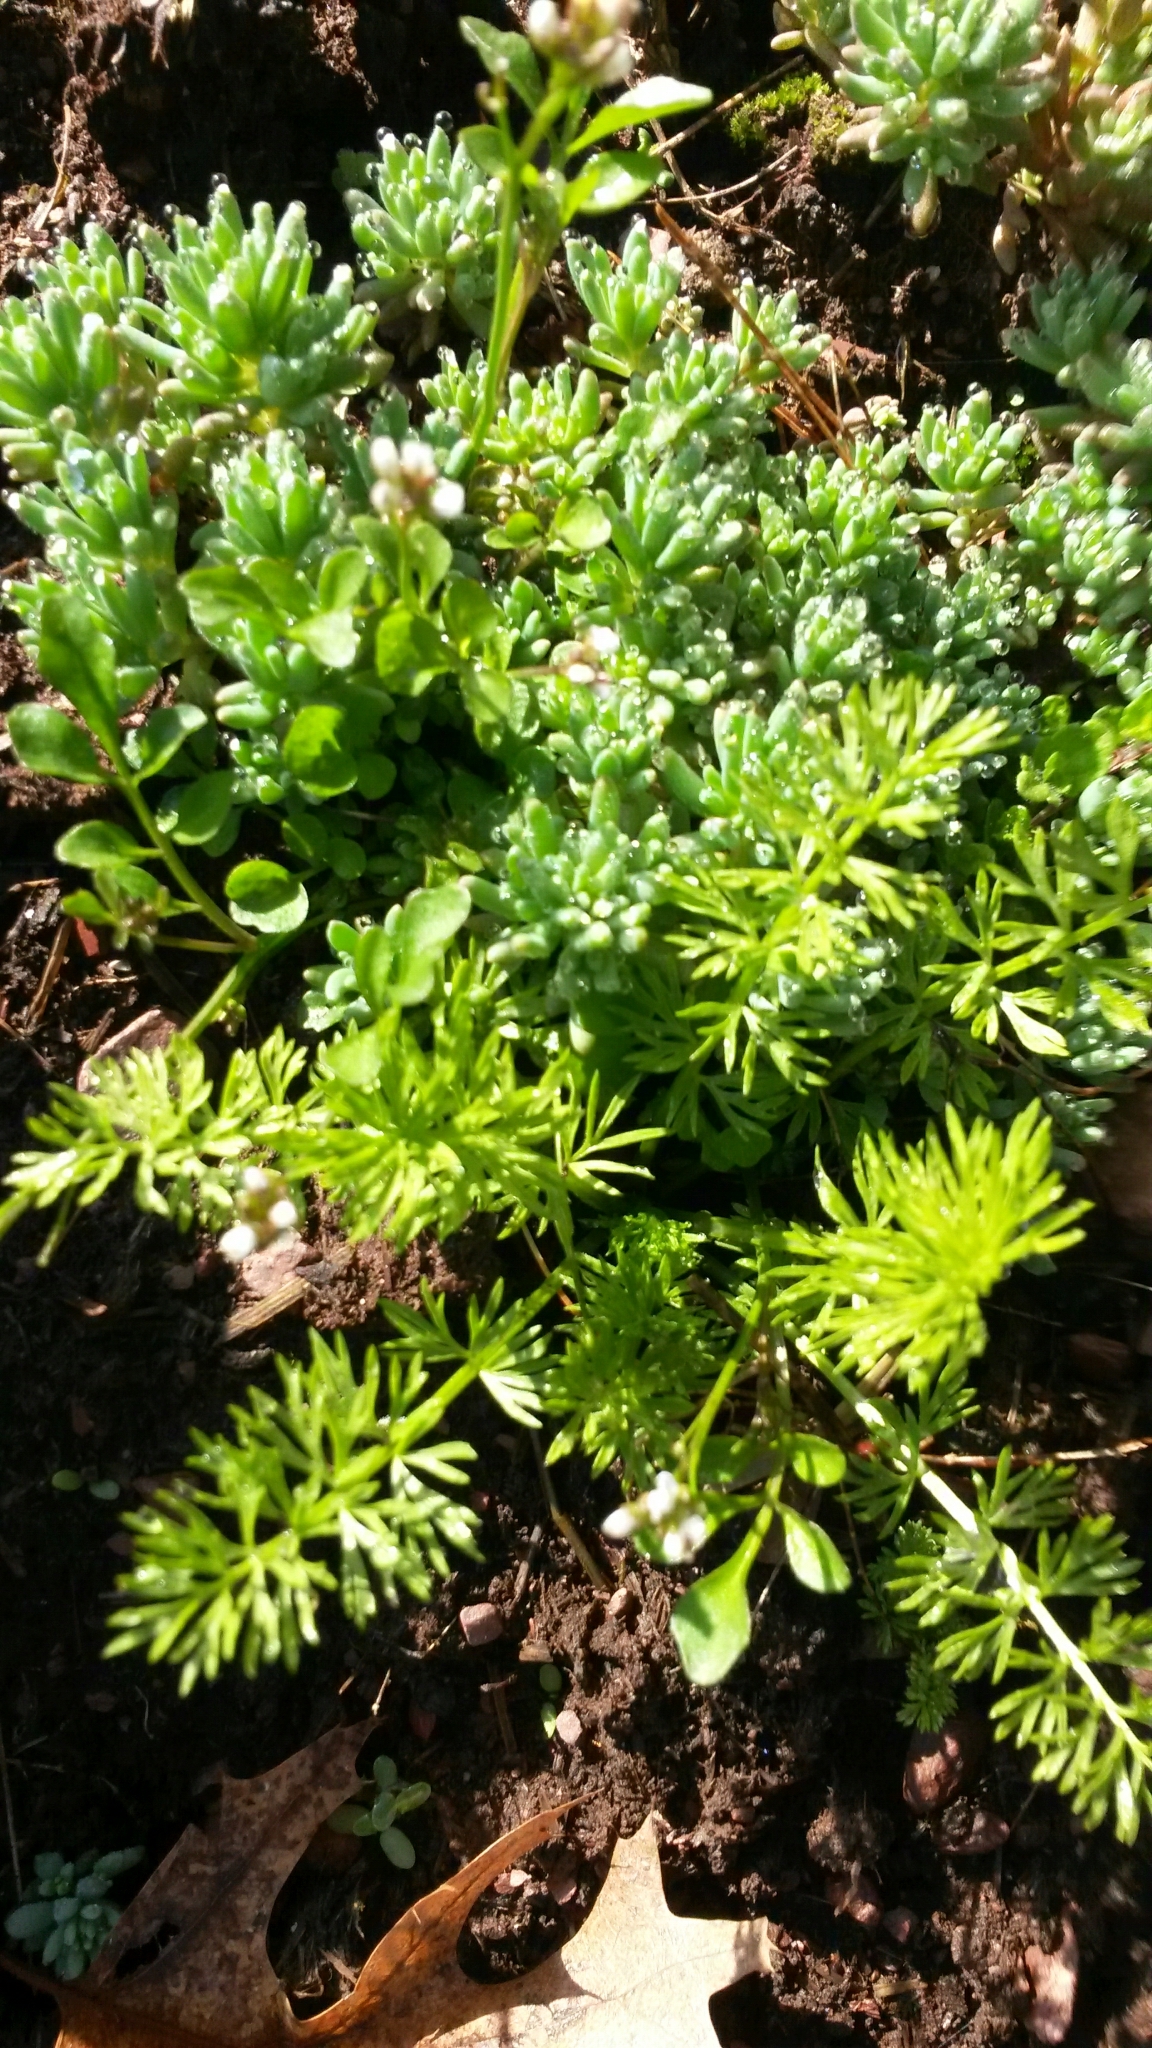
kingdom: Plantae
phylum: Tracheophyta
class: Magnoliopsida
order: Asterales
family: Asteraceae
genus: Achillea
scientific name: Achillea millefolium
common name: Yarrow
